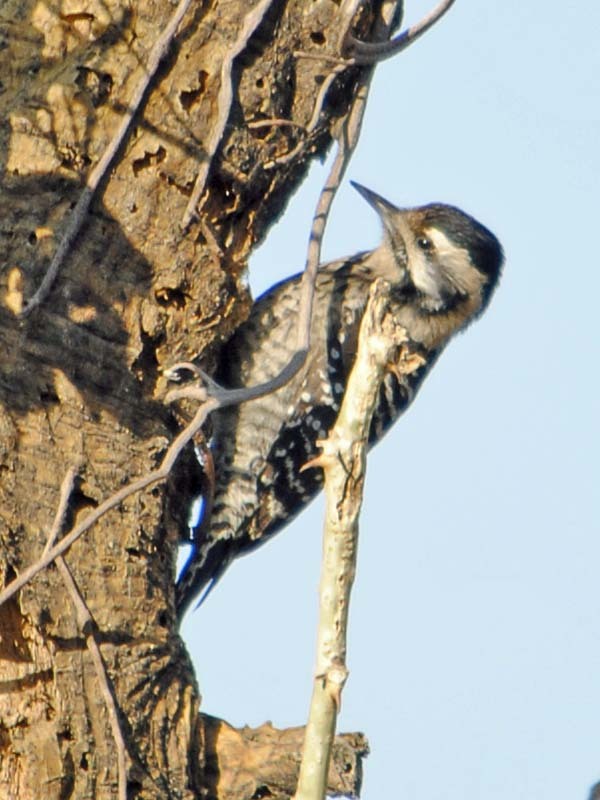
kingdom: Animalia
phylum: Chordata
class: Aves
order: Piciformes
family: Picidae
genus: Dryobates
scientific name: Dryobates scalaris
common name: Ladder-backed woodpecker
